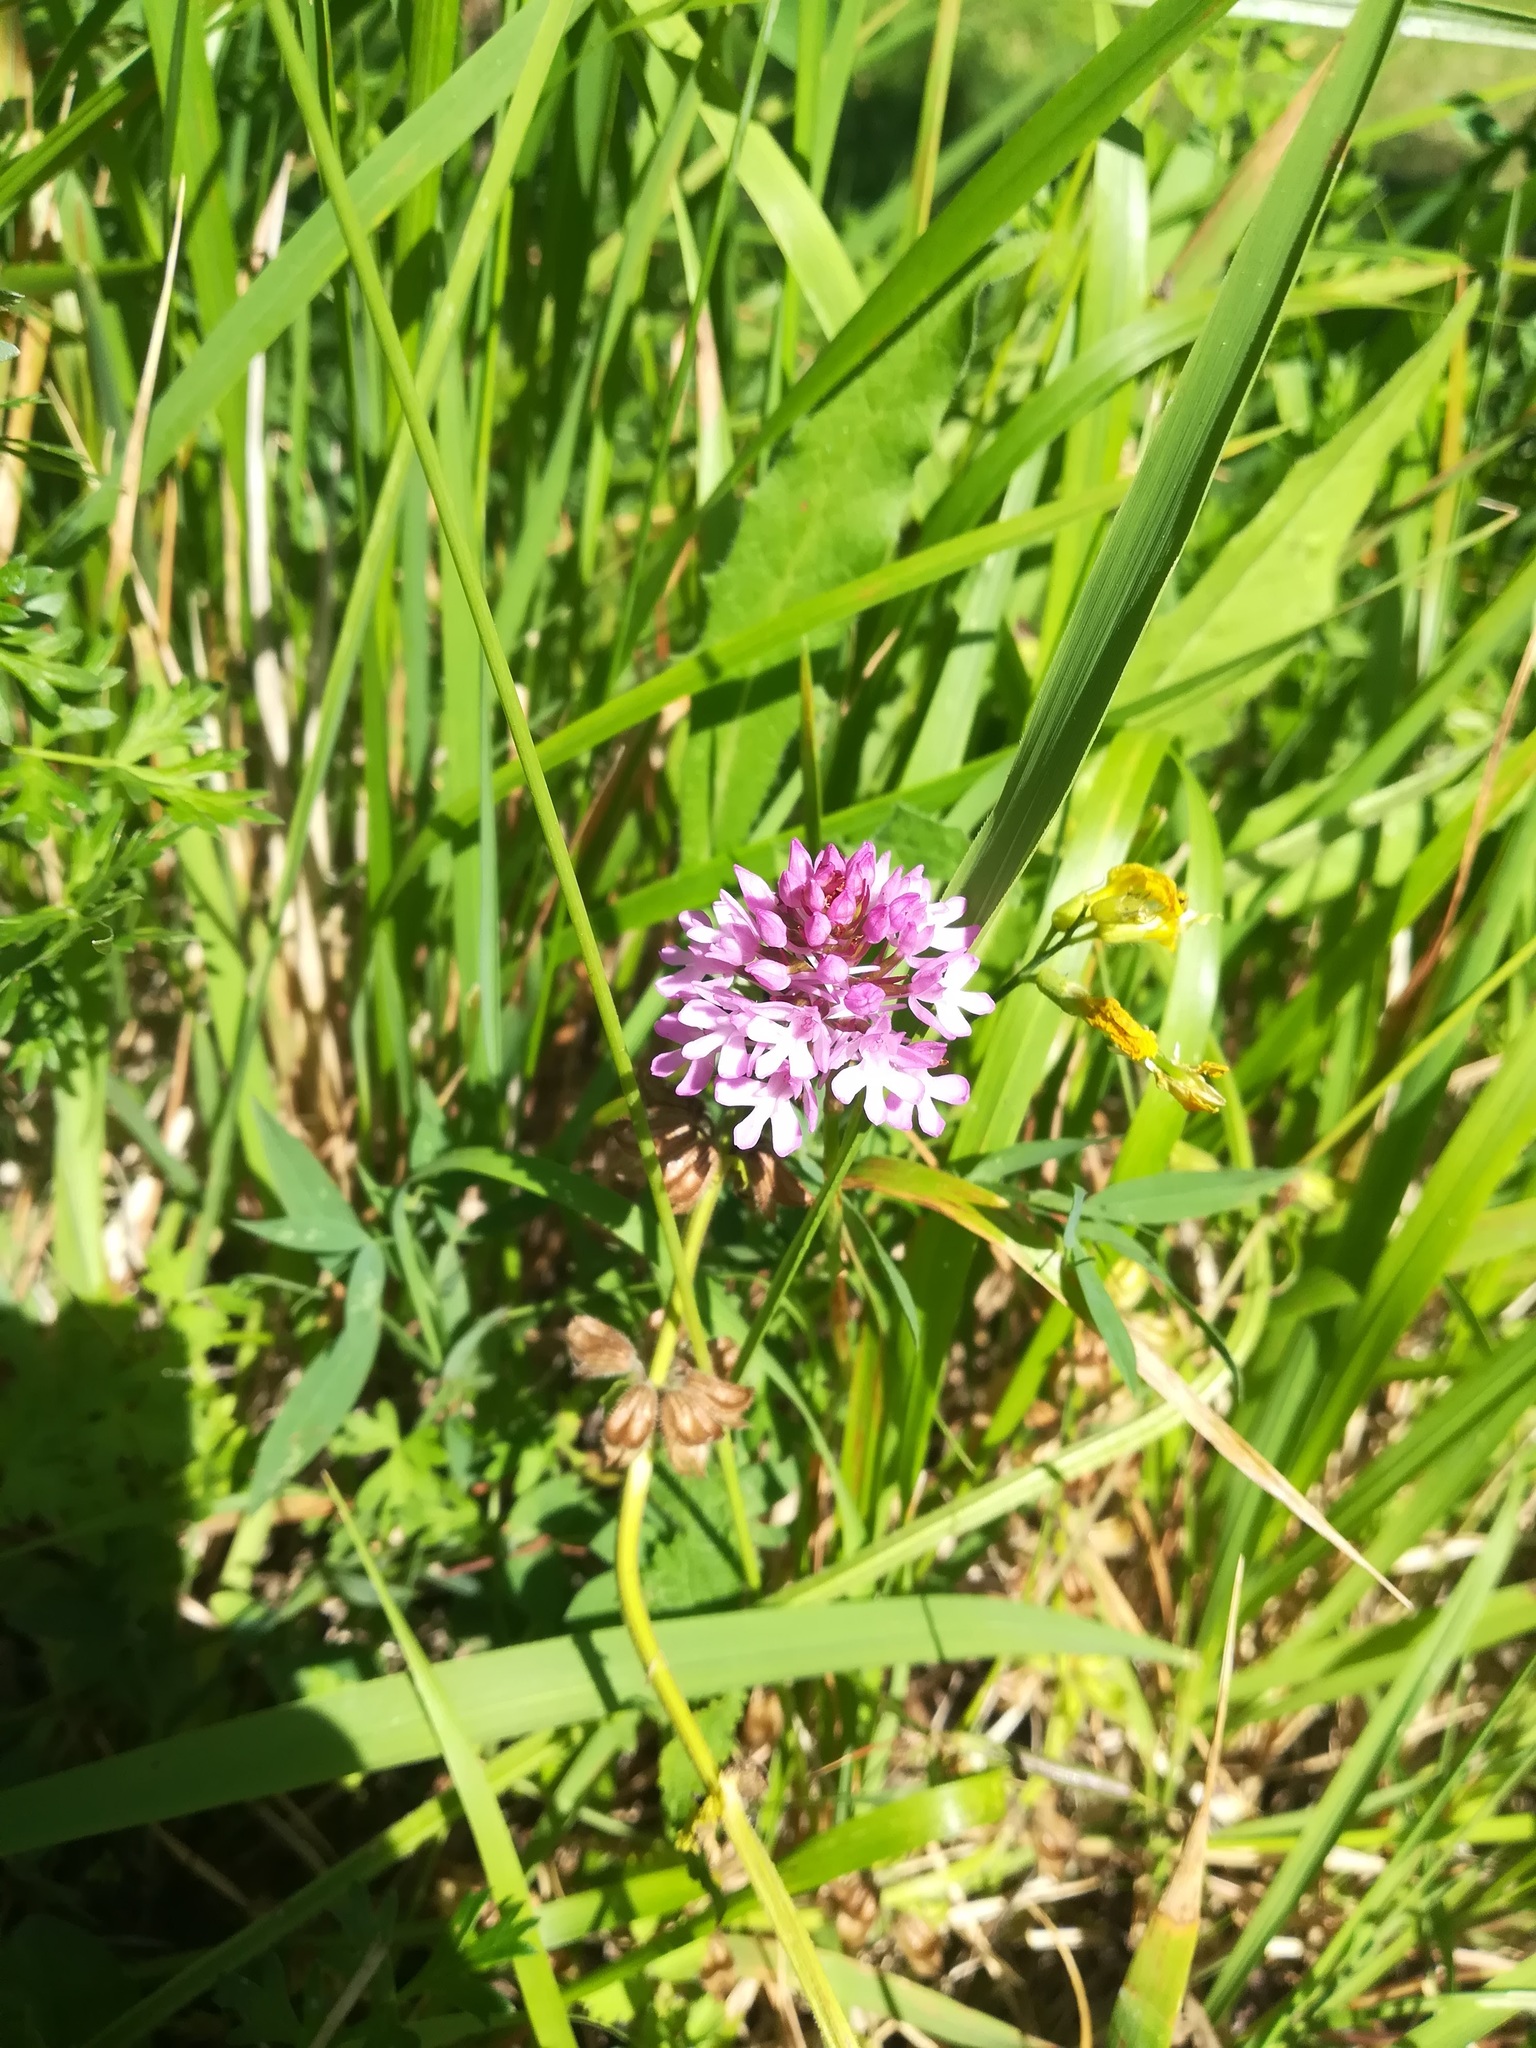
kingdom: Plantae
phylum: Tracheophyta
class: Liliopsida
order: Asparagales
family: Orchidaceae
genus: Anacamptis
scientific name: Anacamptis pyramidalis
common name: Pyramidal orchid
